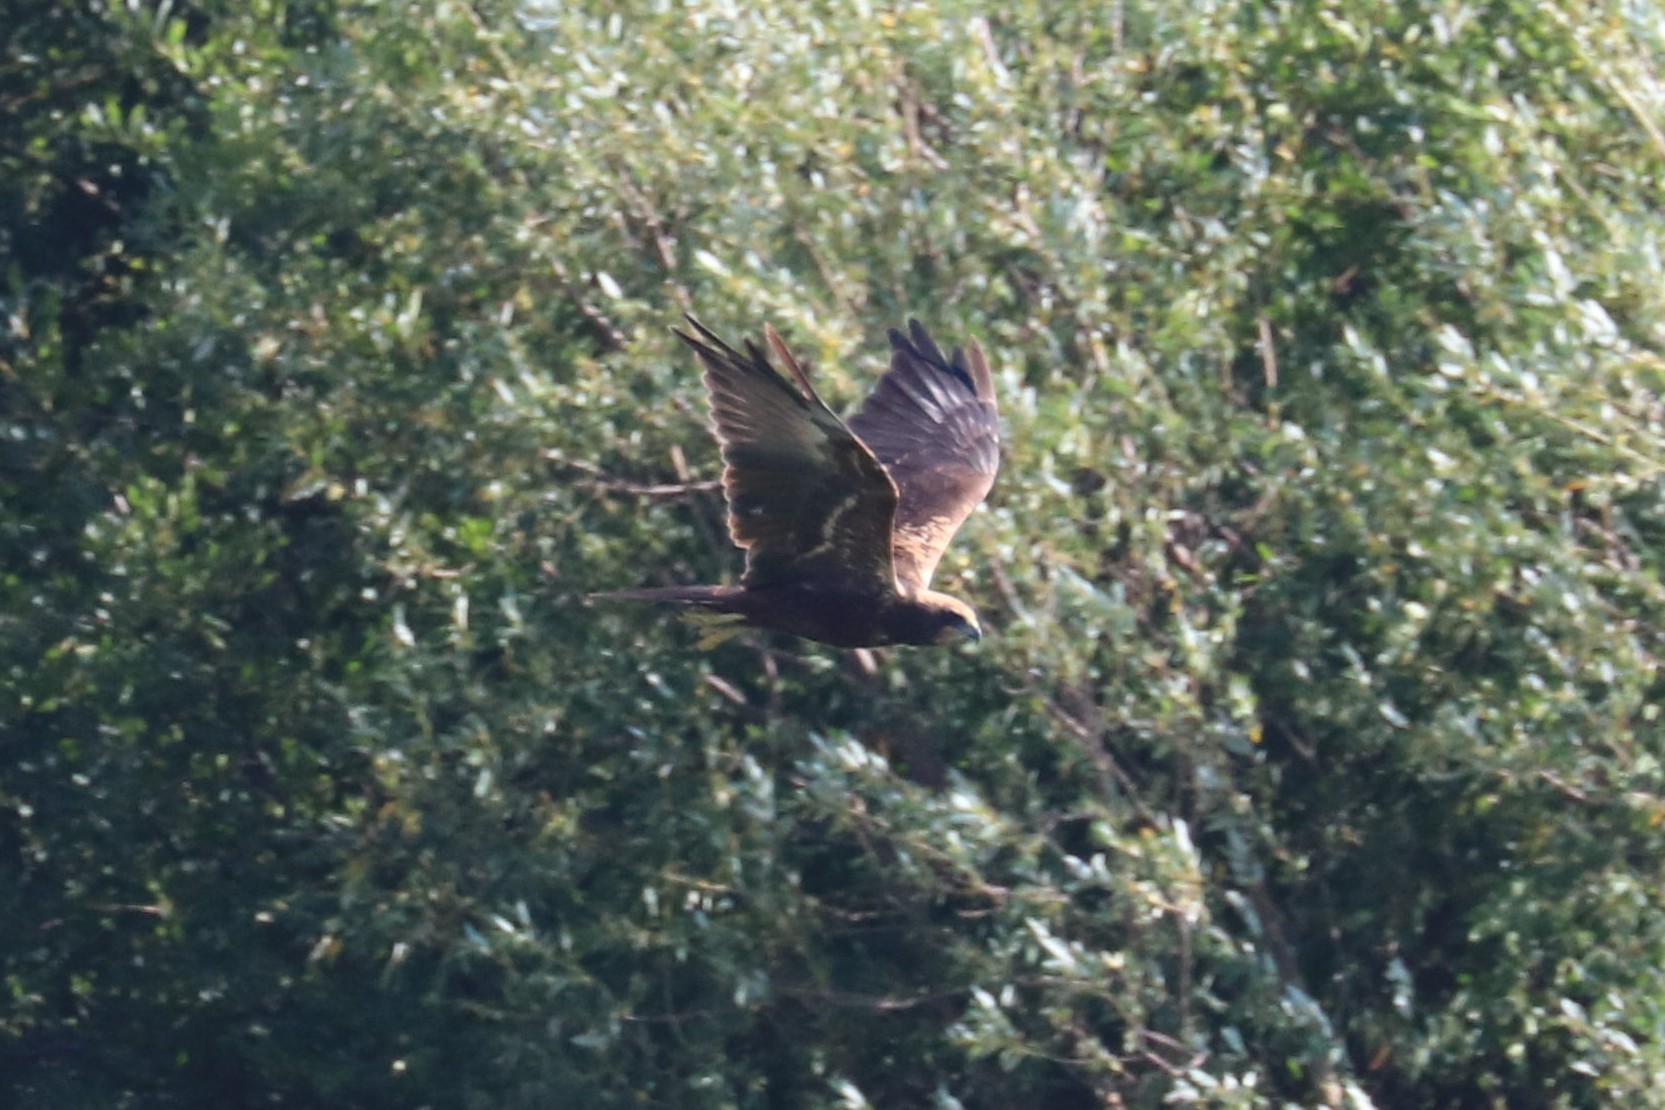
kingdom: Animalia
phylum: Chordata
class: Aves
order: Accipitriformes
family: Accipitridae
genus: Circus
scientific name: Circus aeruginosus
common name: Western marsh harrier
